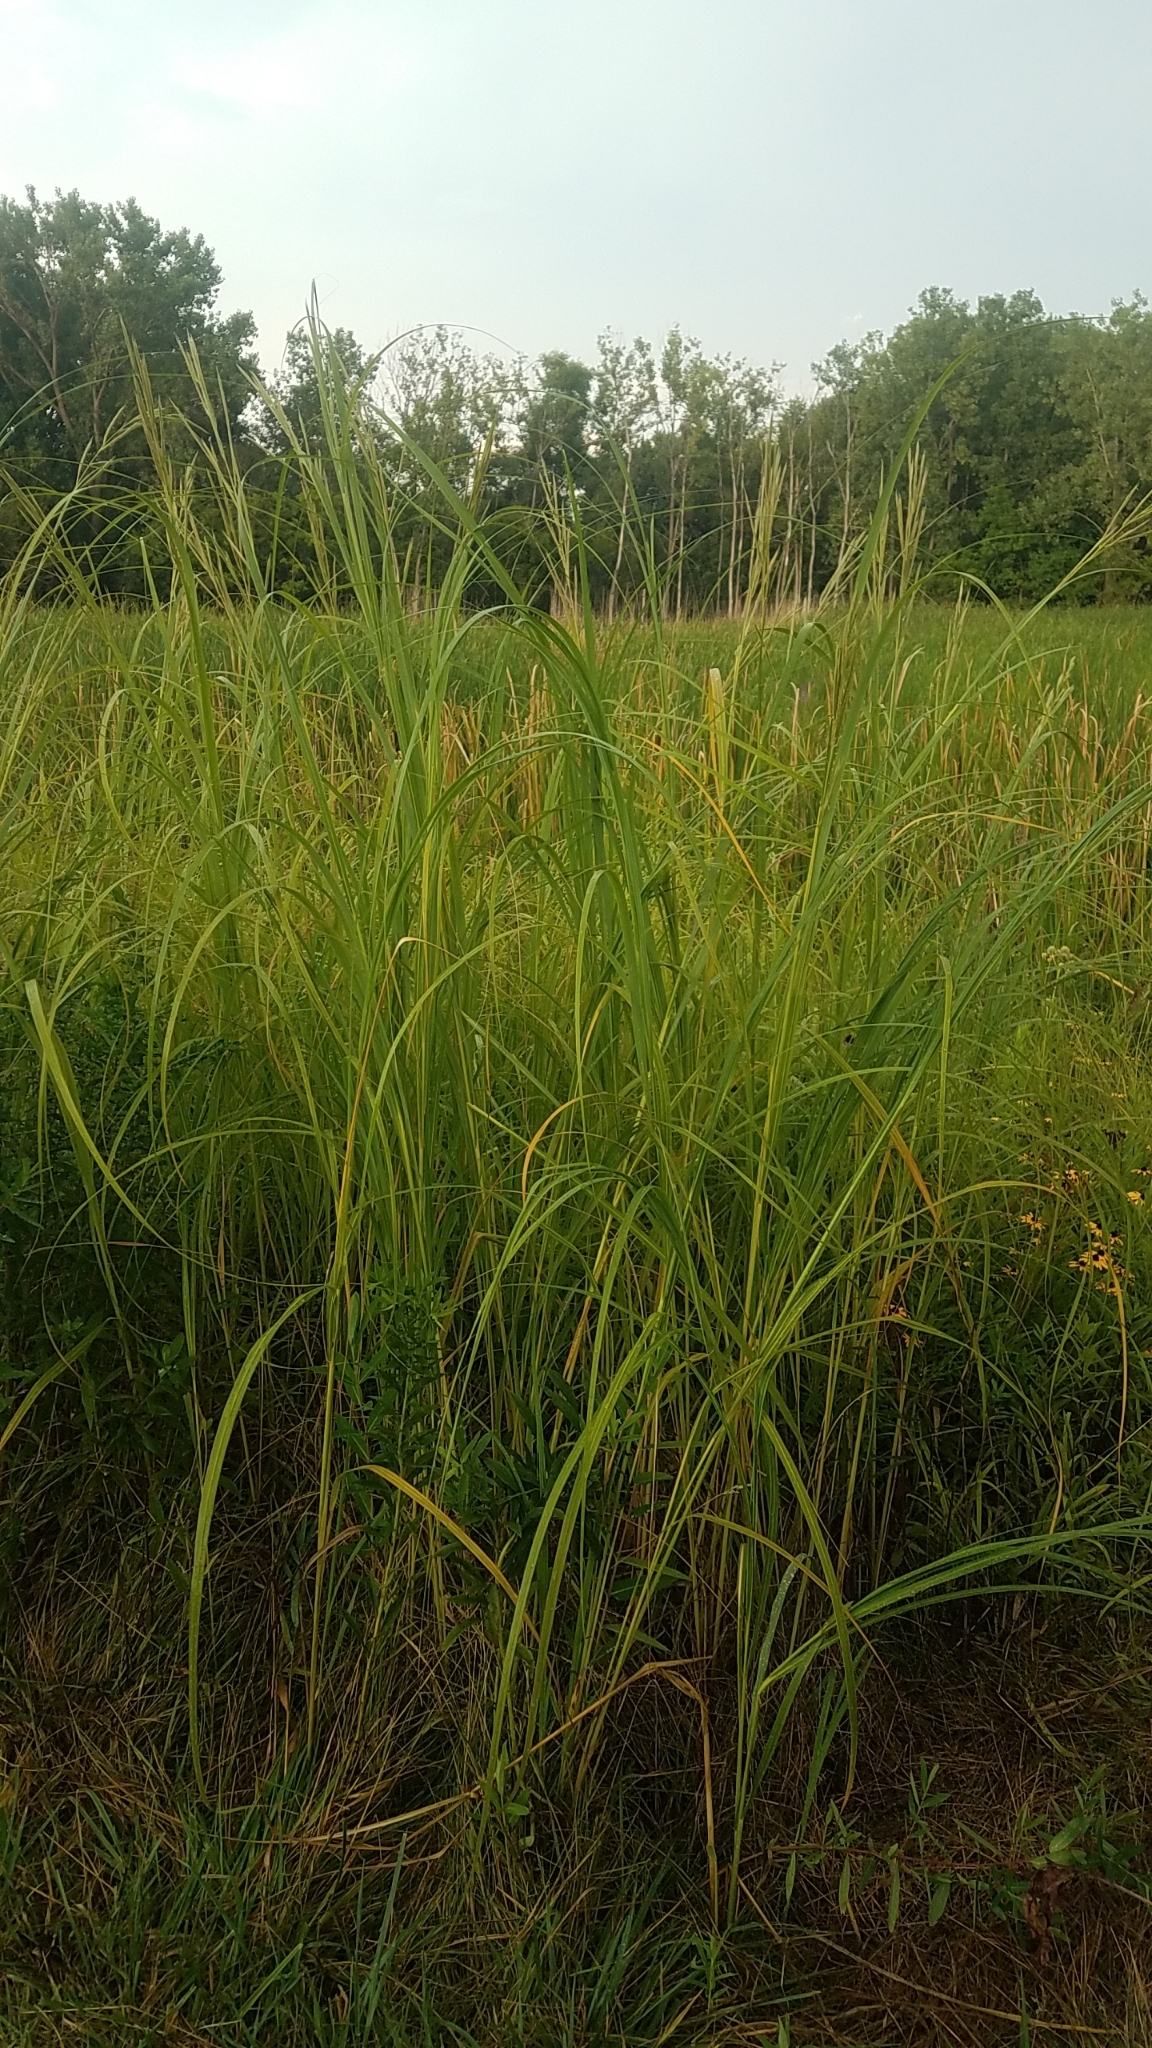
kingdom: Plantae
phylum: Tracheophyta
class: Liliopsida
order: Poales
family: Poaceae
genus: Sporobolus
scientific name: Sporobolus michauxianus
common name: Freshwater cordgrass
